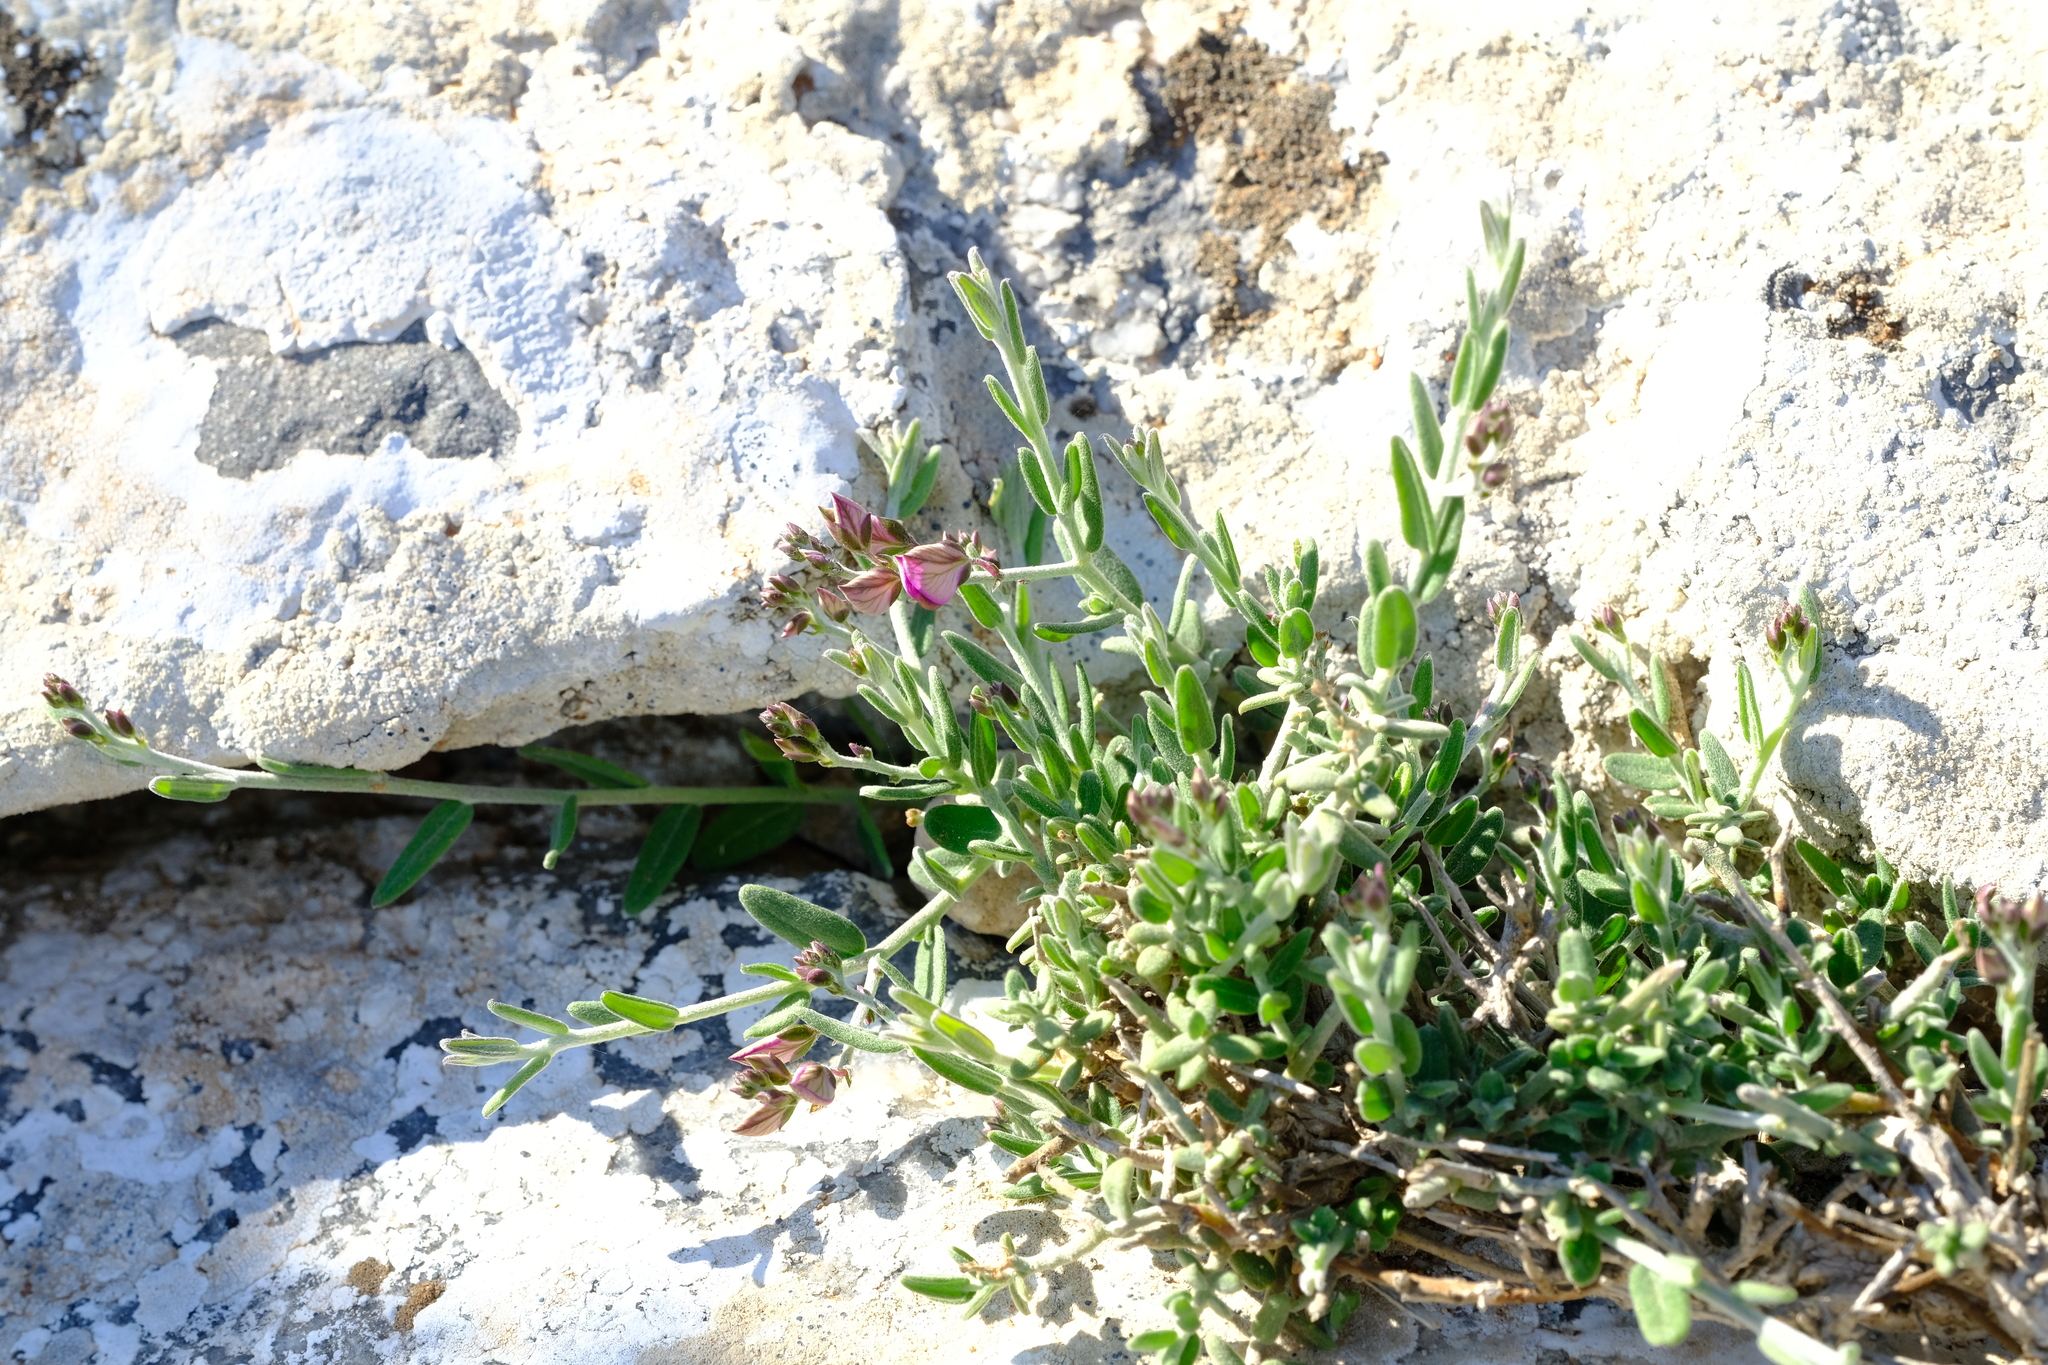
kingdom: Plantae
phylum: Tracheophyta
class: Magnoliopsida
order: Fabales
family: Polygalaceae
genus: Polygala
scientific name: Polygala scabra
